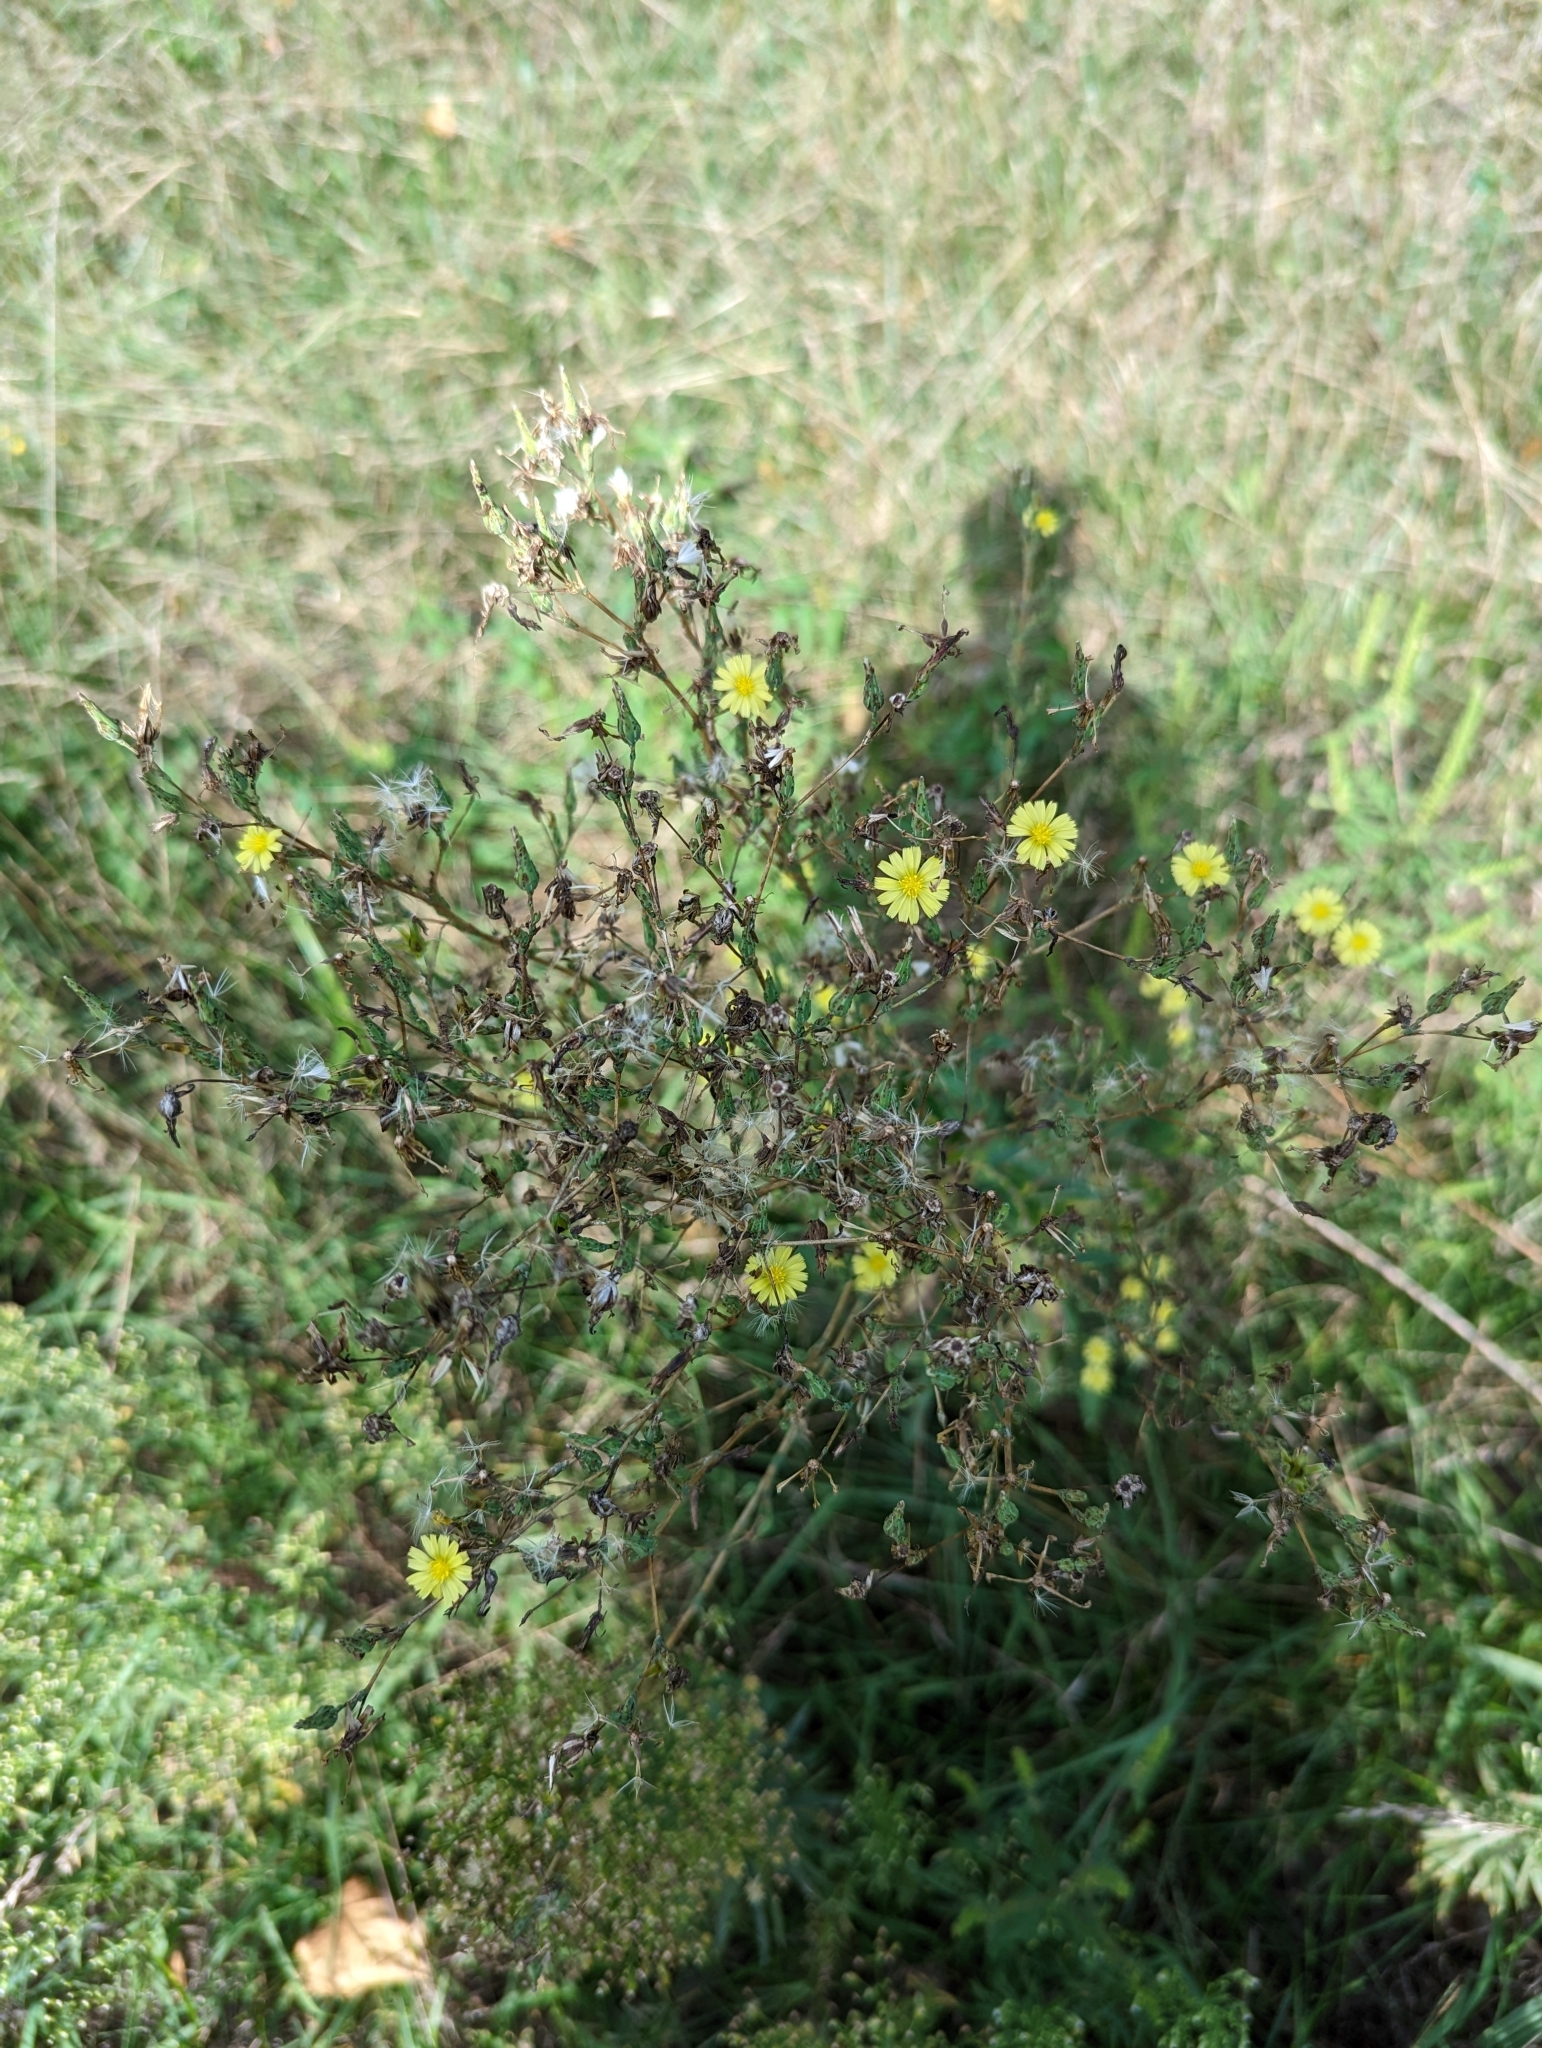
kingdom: Plantae
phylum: Tracheophyta
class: Magnoliopsida
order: Asterales
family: Asteraceae
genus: Lactuca
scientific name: Lactuca serriola
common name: Prickly lettuce
